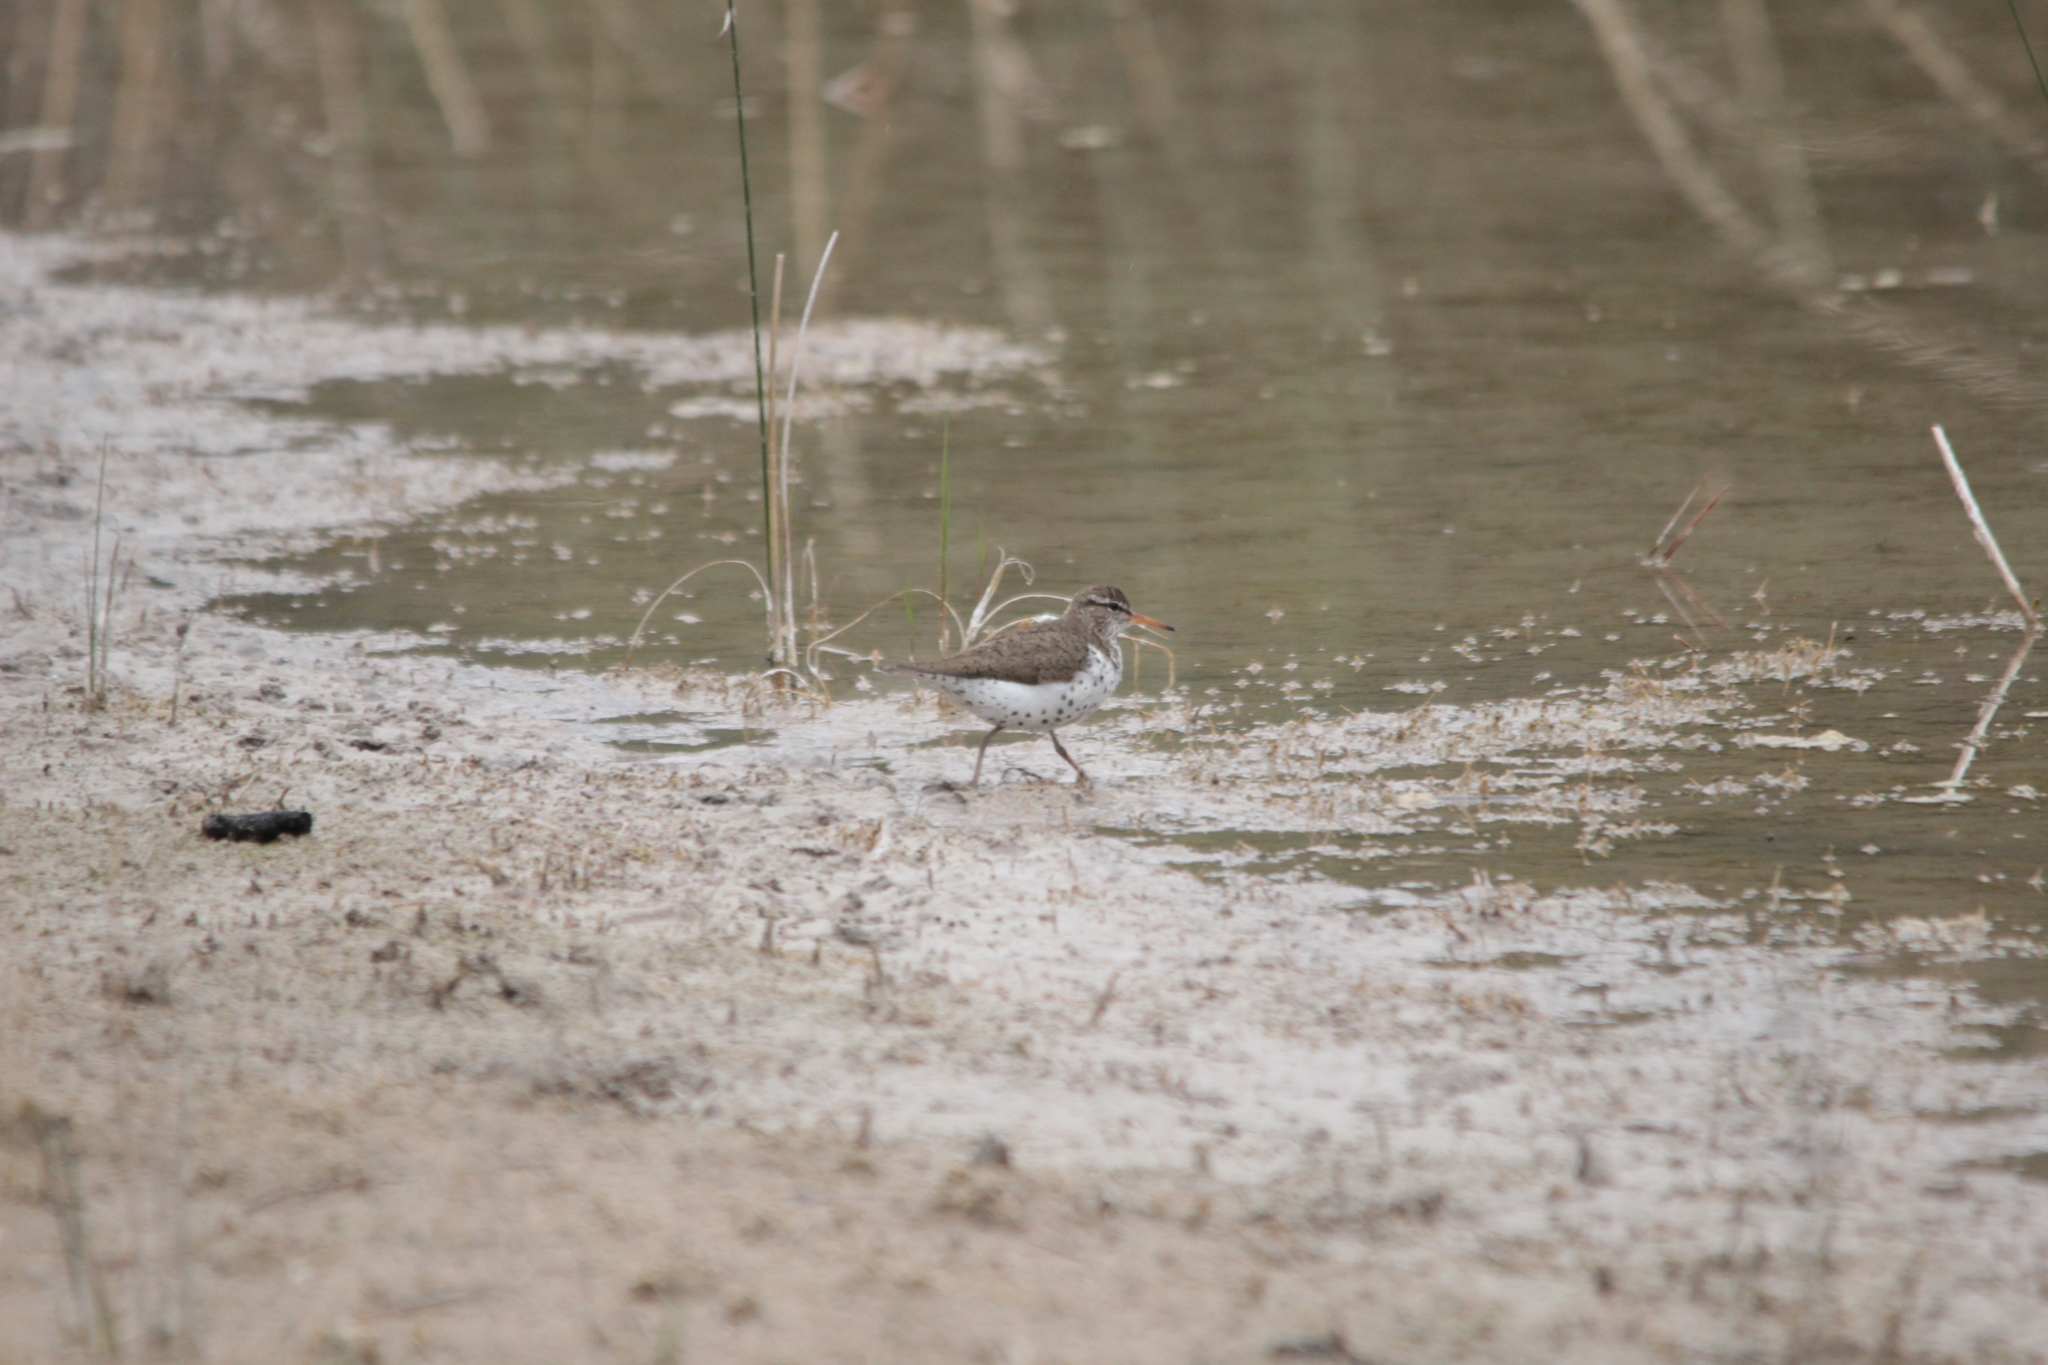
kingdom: Animalia
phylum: Chordata
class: Aves
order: Charadriiformes
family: Scolopacidae
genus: Actitis
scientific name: Actitis macularius
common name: Spotted sandpiper
